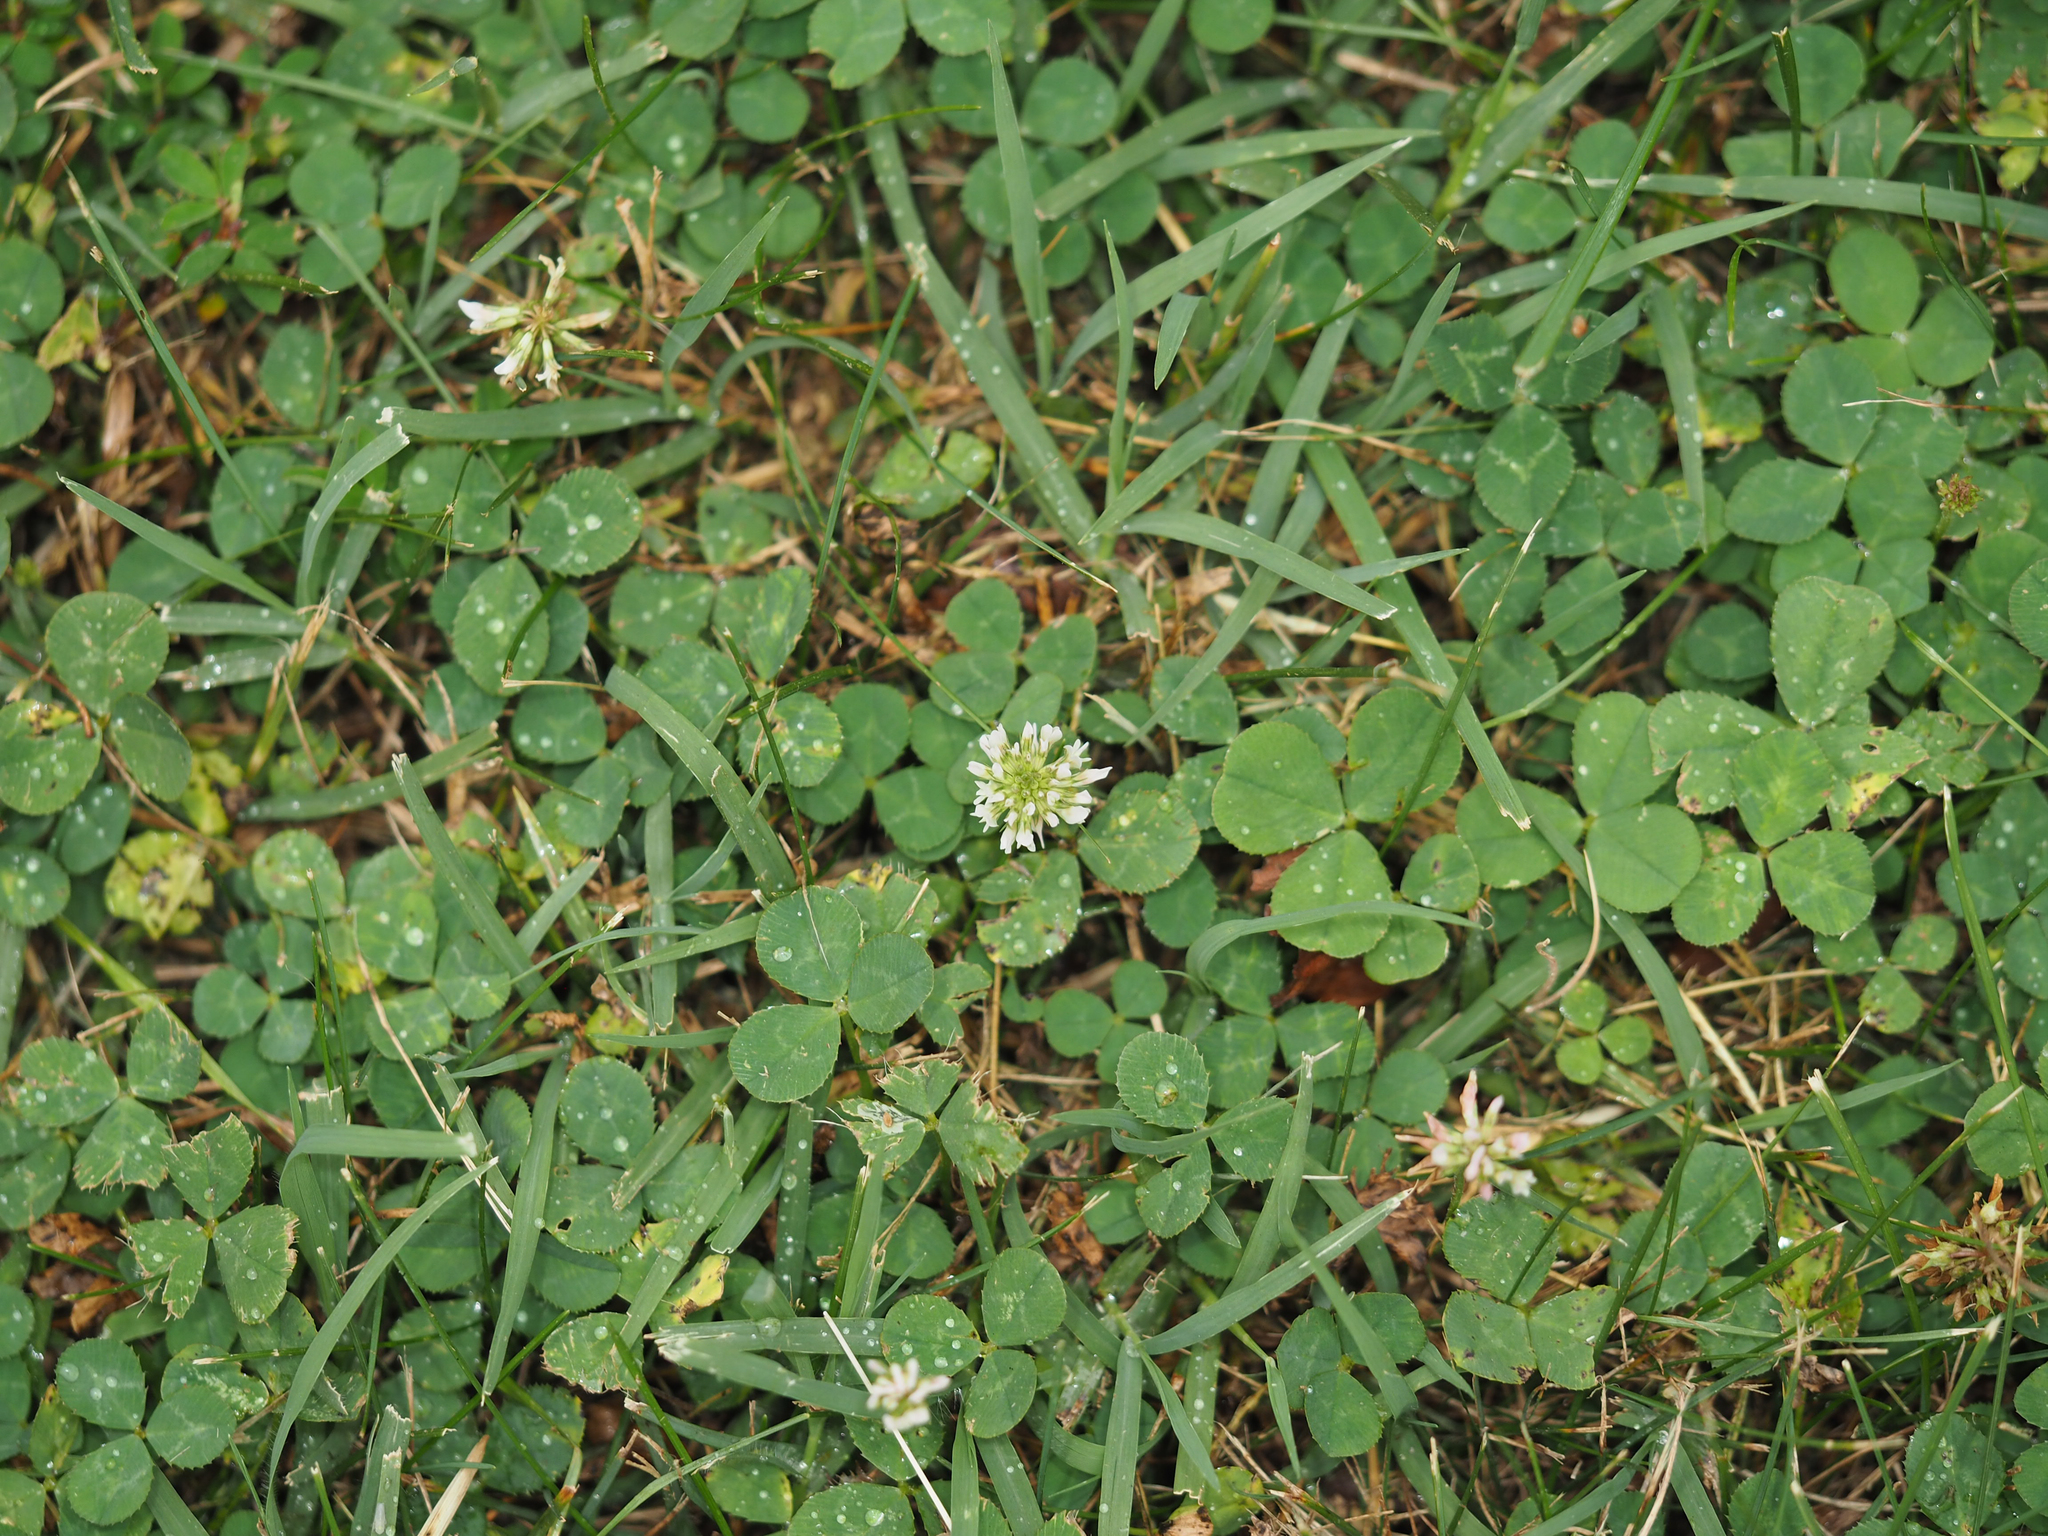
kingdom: Plantae
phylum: Tracheophyta
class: Magnoliopsida
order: Fabales
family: Fabaceae
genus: Trifolium
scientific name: Trifolium repens
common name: White clover
